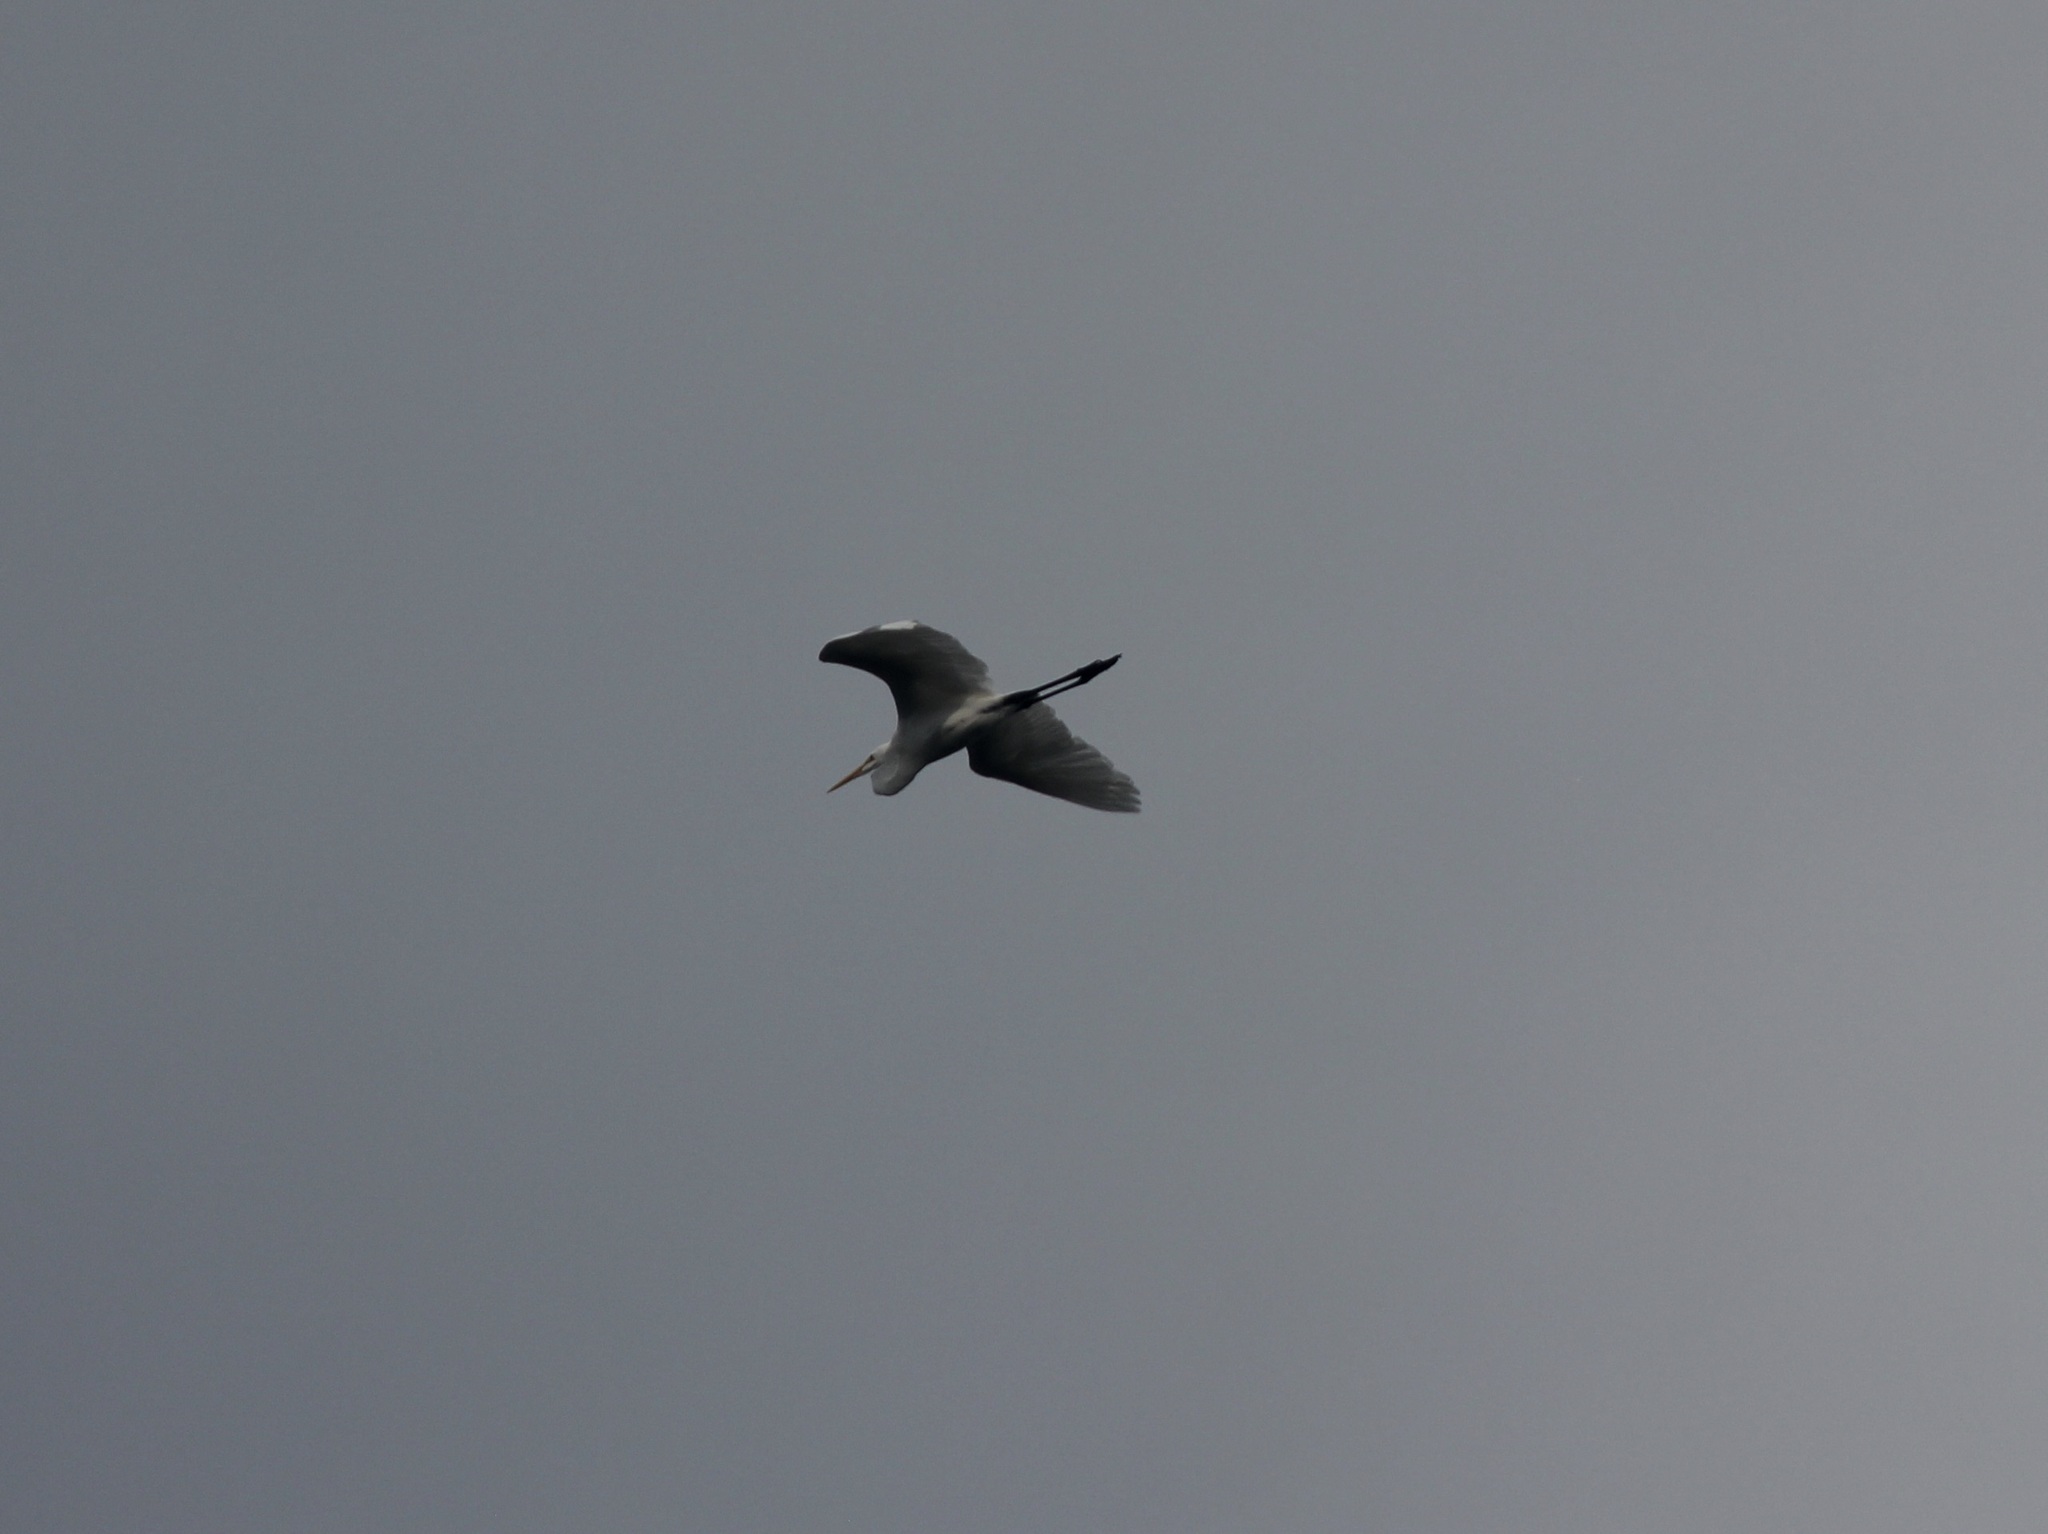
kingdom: Animalia
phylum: Chordata
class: Aves
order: Pelecaniformes
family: Ardeidae
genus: Ardea
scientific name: Ardea alba
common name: Great egret
